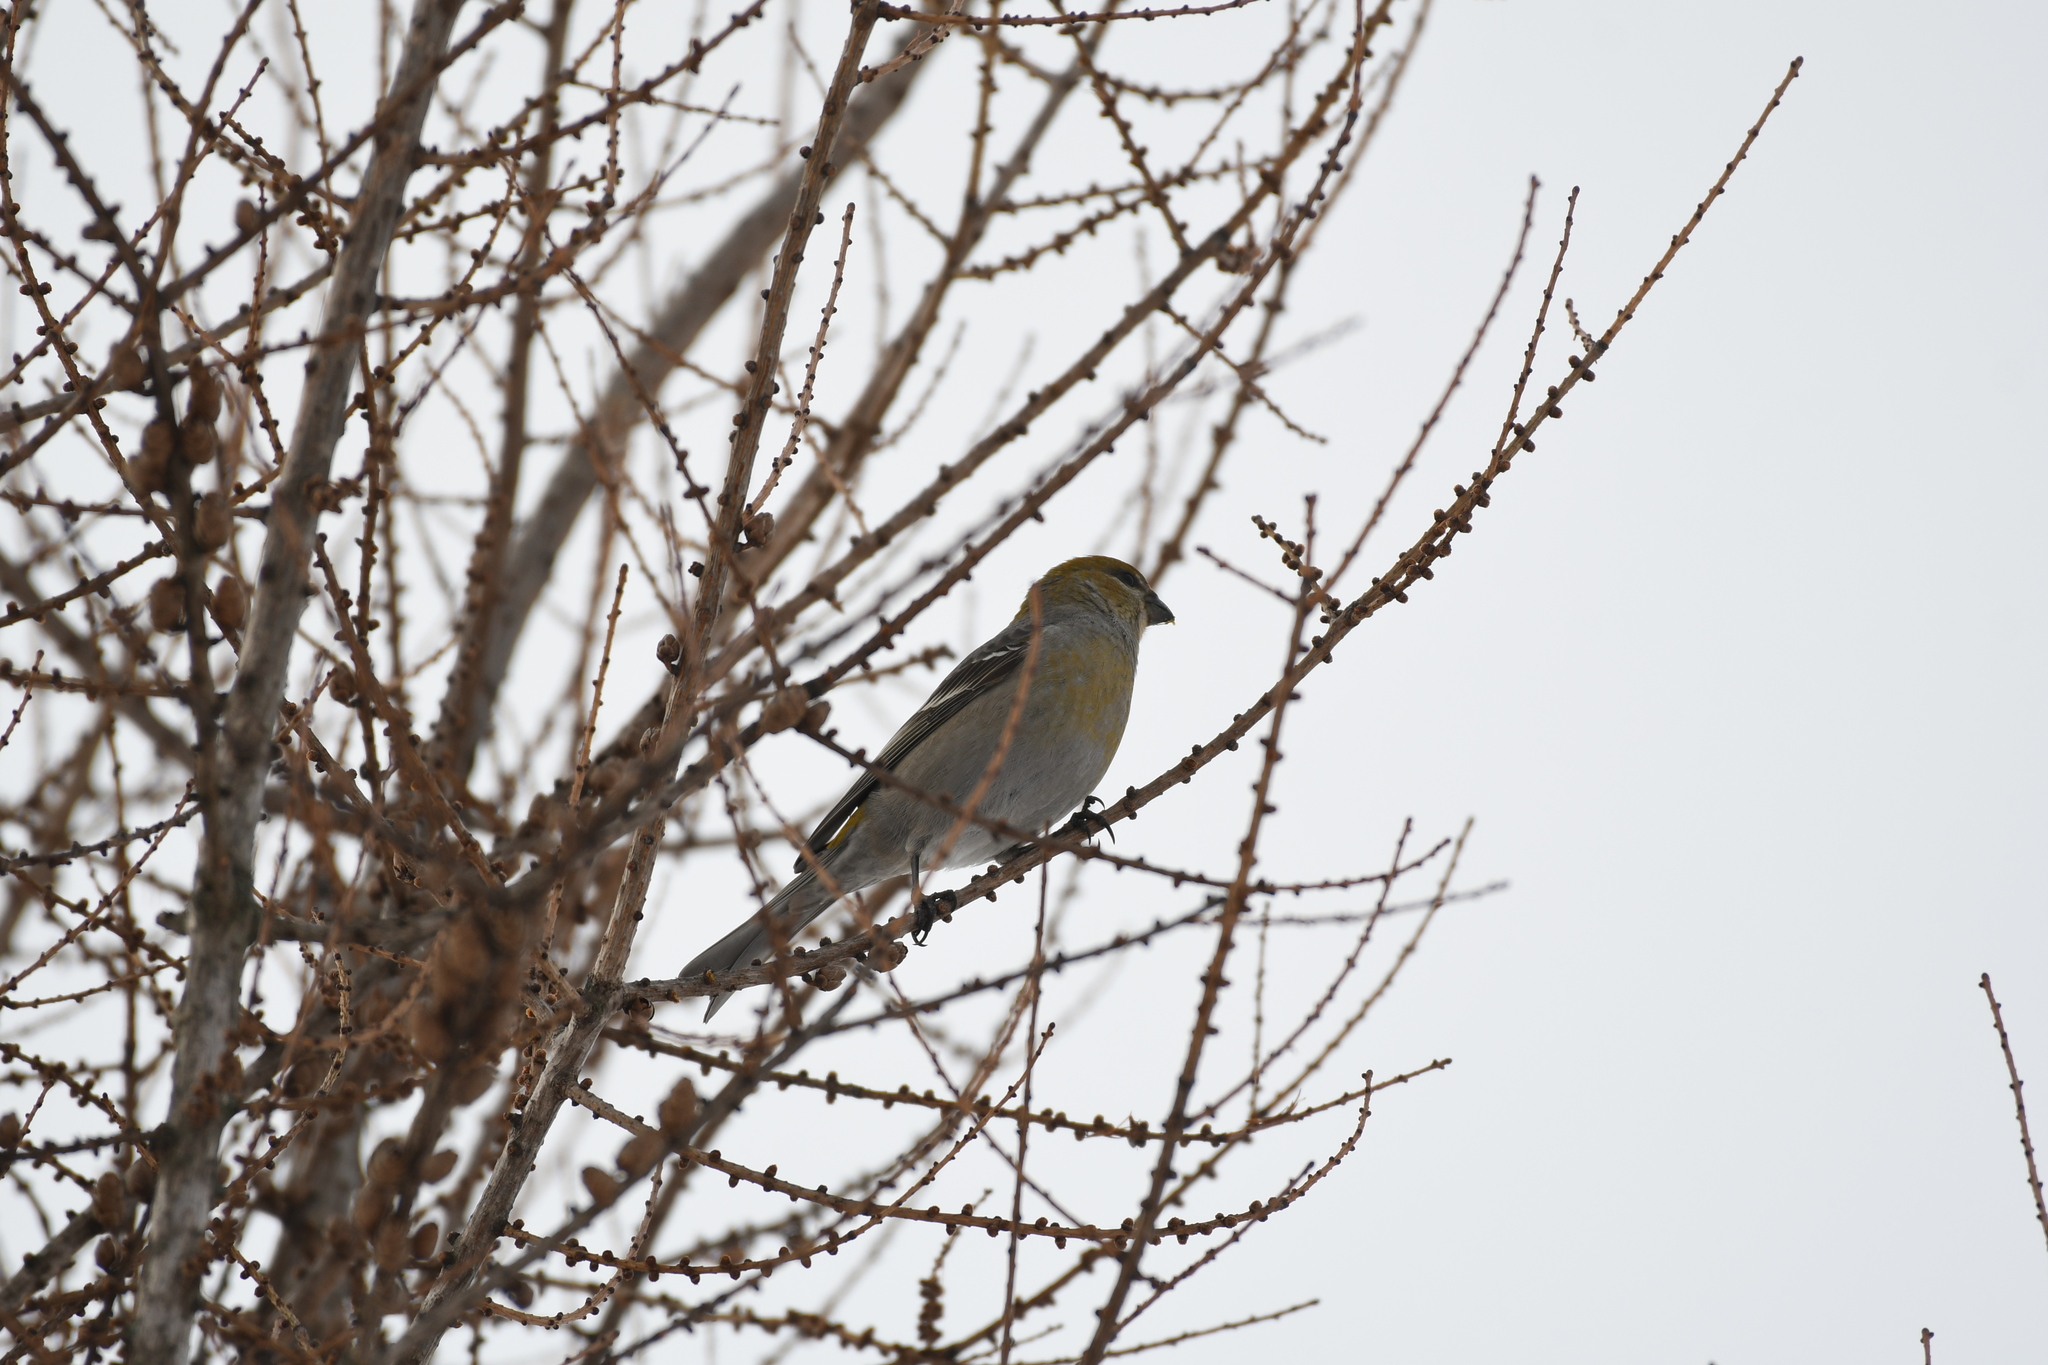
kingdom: Animalia
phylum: Chordata
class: Aves
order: Passeriformes
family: Fringillidae
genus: Pinicola
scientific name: Pinicola enucleator
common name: Pine grosbeak
